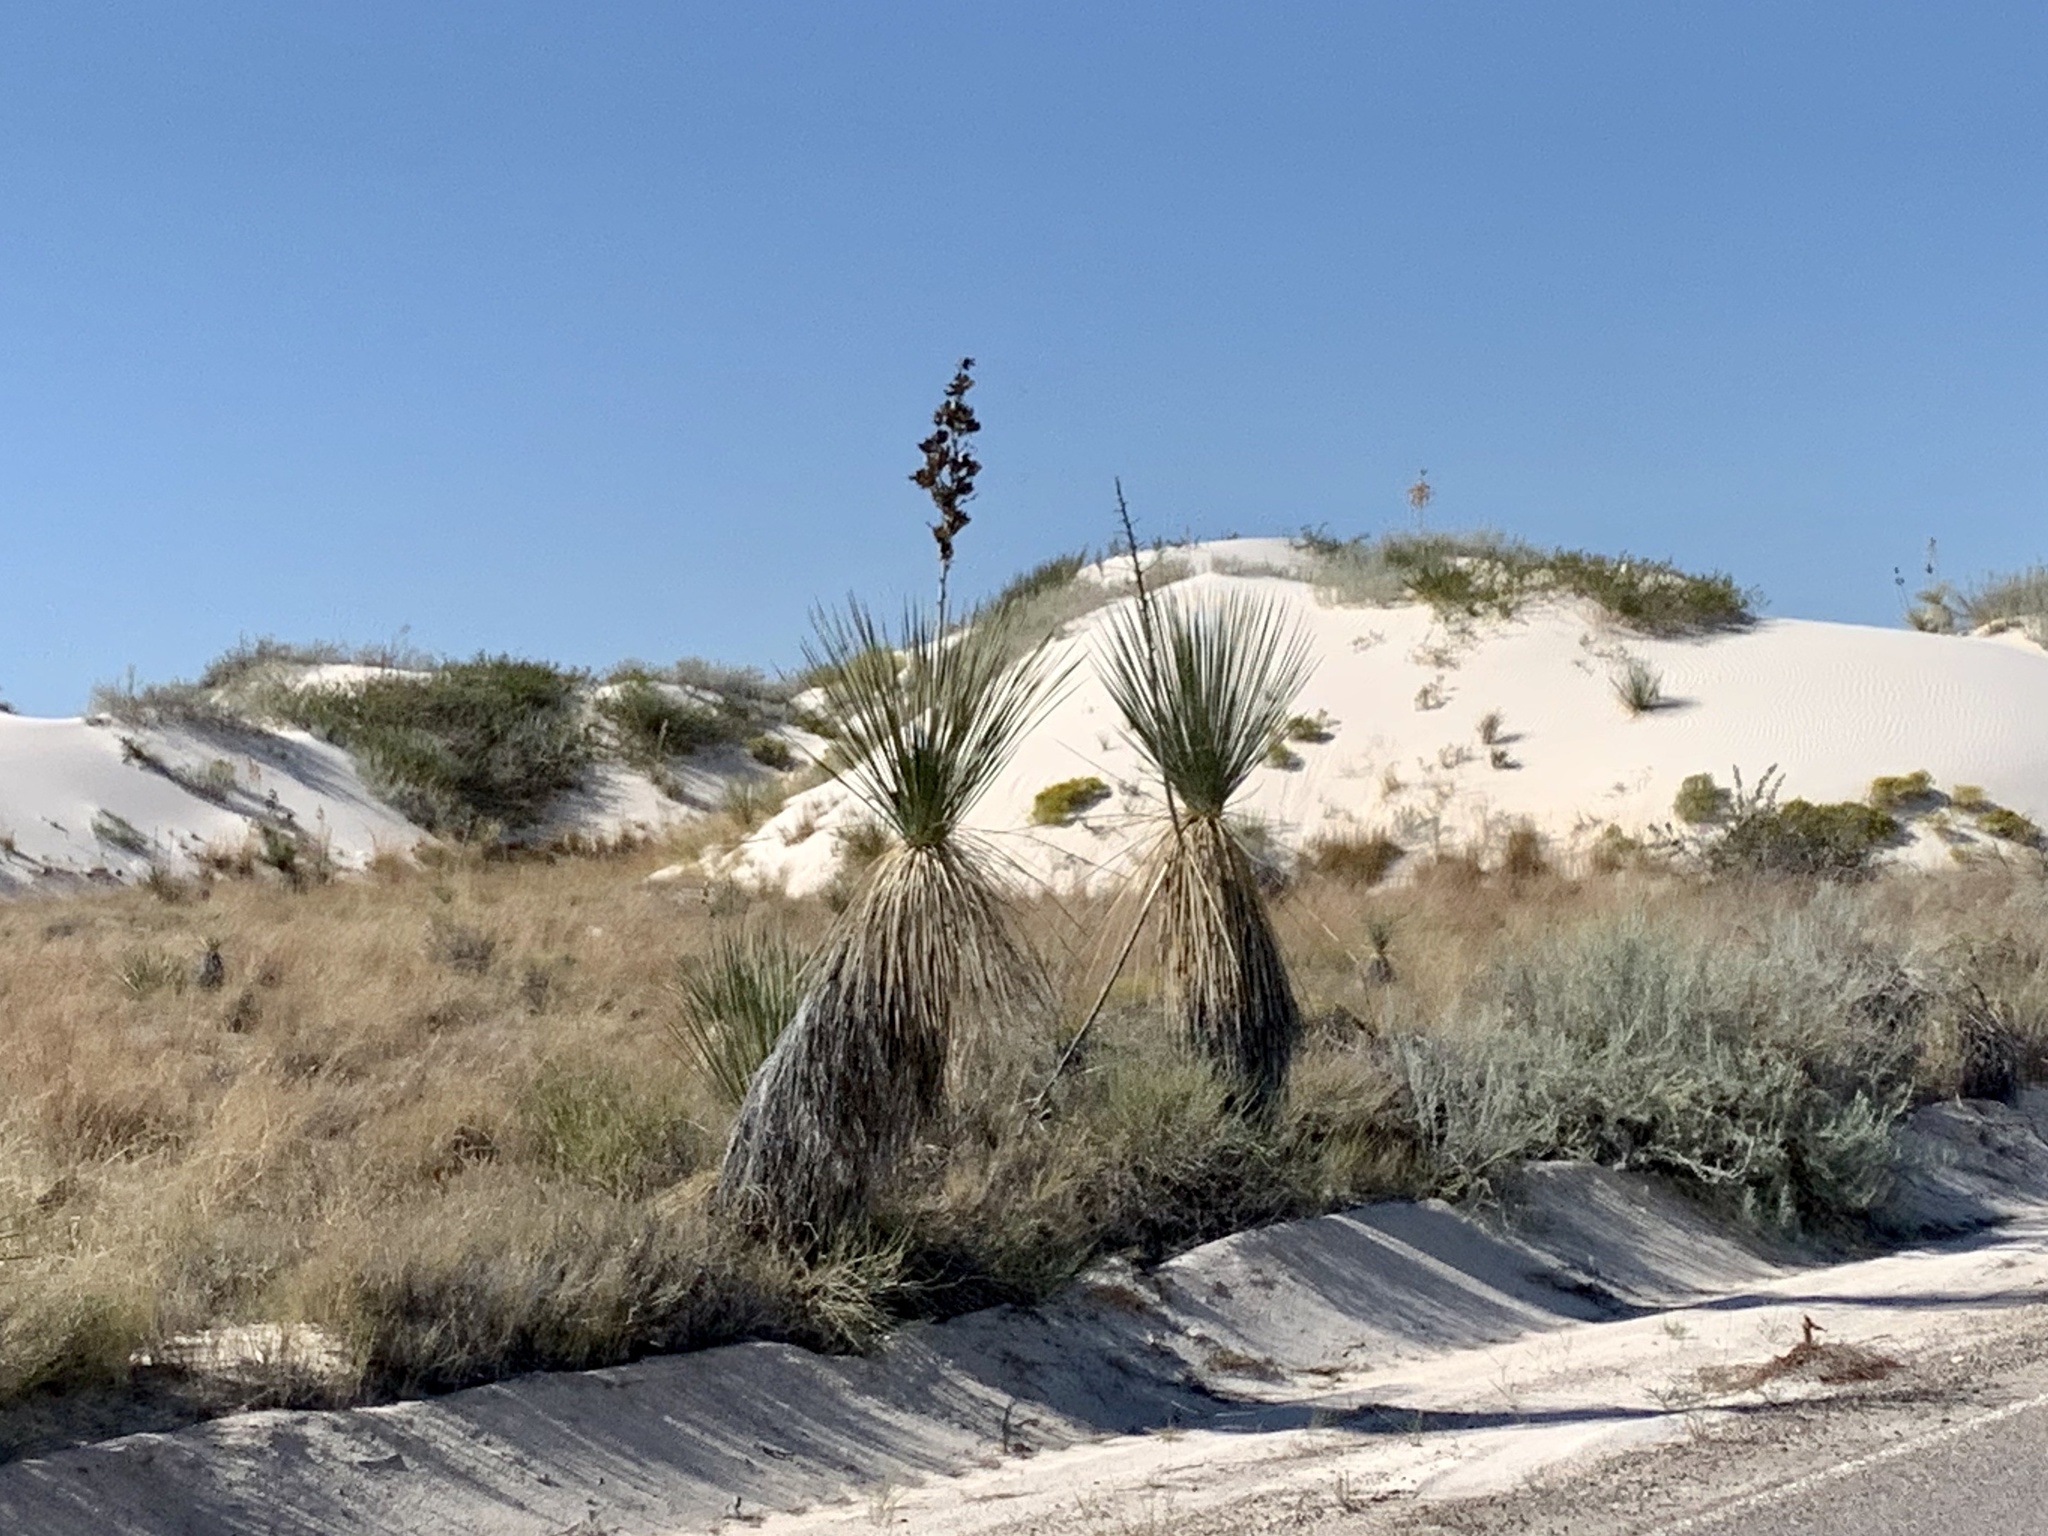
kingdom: Plantae
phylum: Tracheophyta
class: Liliopsida
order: Asparagales
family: Asparagaceae
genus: Yucca
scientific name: Yucca elata
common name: Palmella
